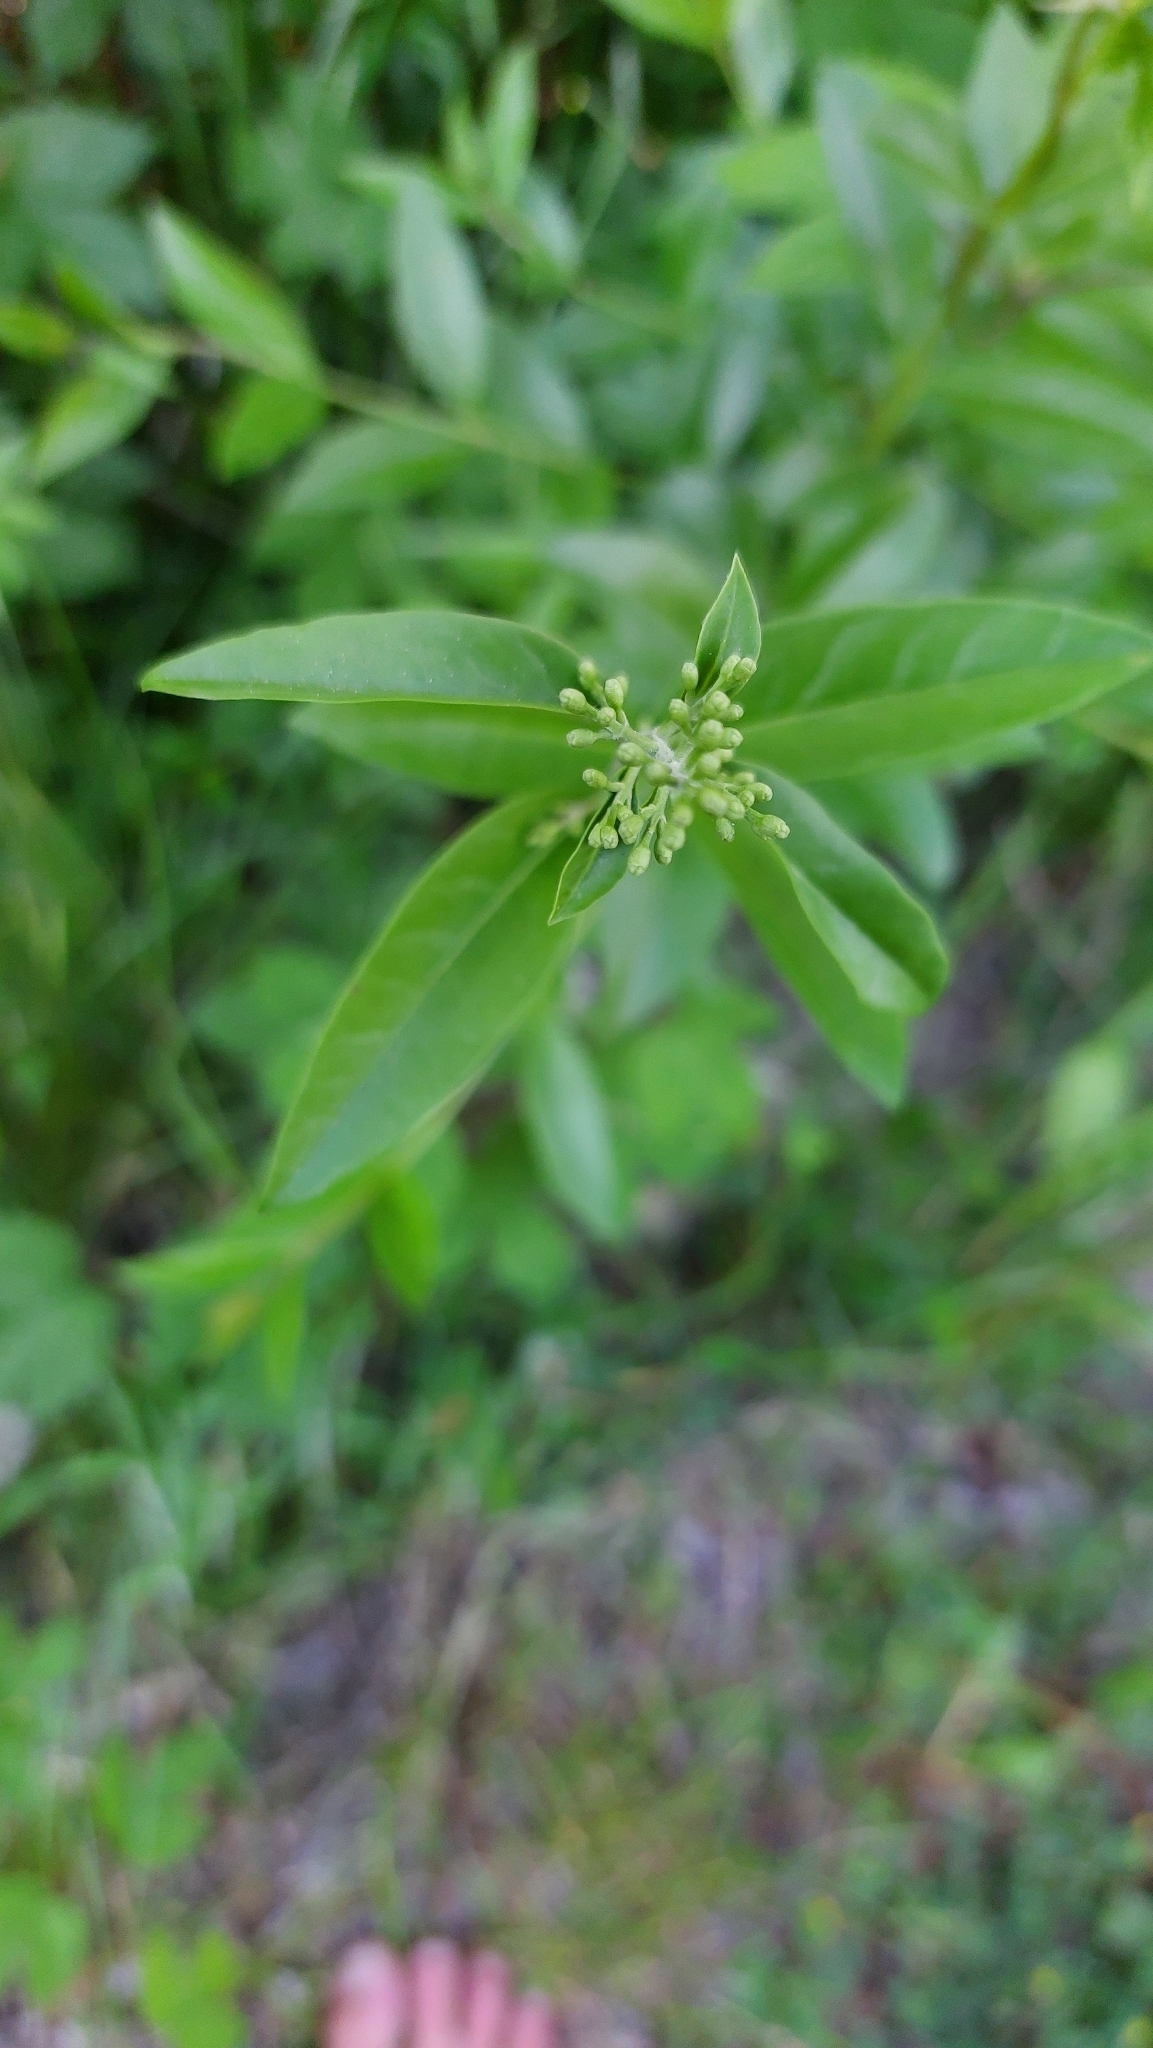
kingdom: Plantae
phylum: Tracheophyta
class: Magnoliopsida
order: Lamiales
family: Oleaceae
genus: Ligustrum
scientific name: Ligustrum vulgare
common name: Wild privet
